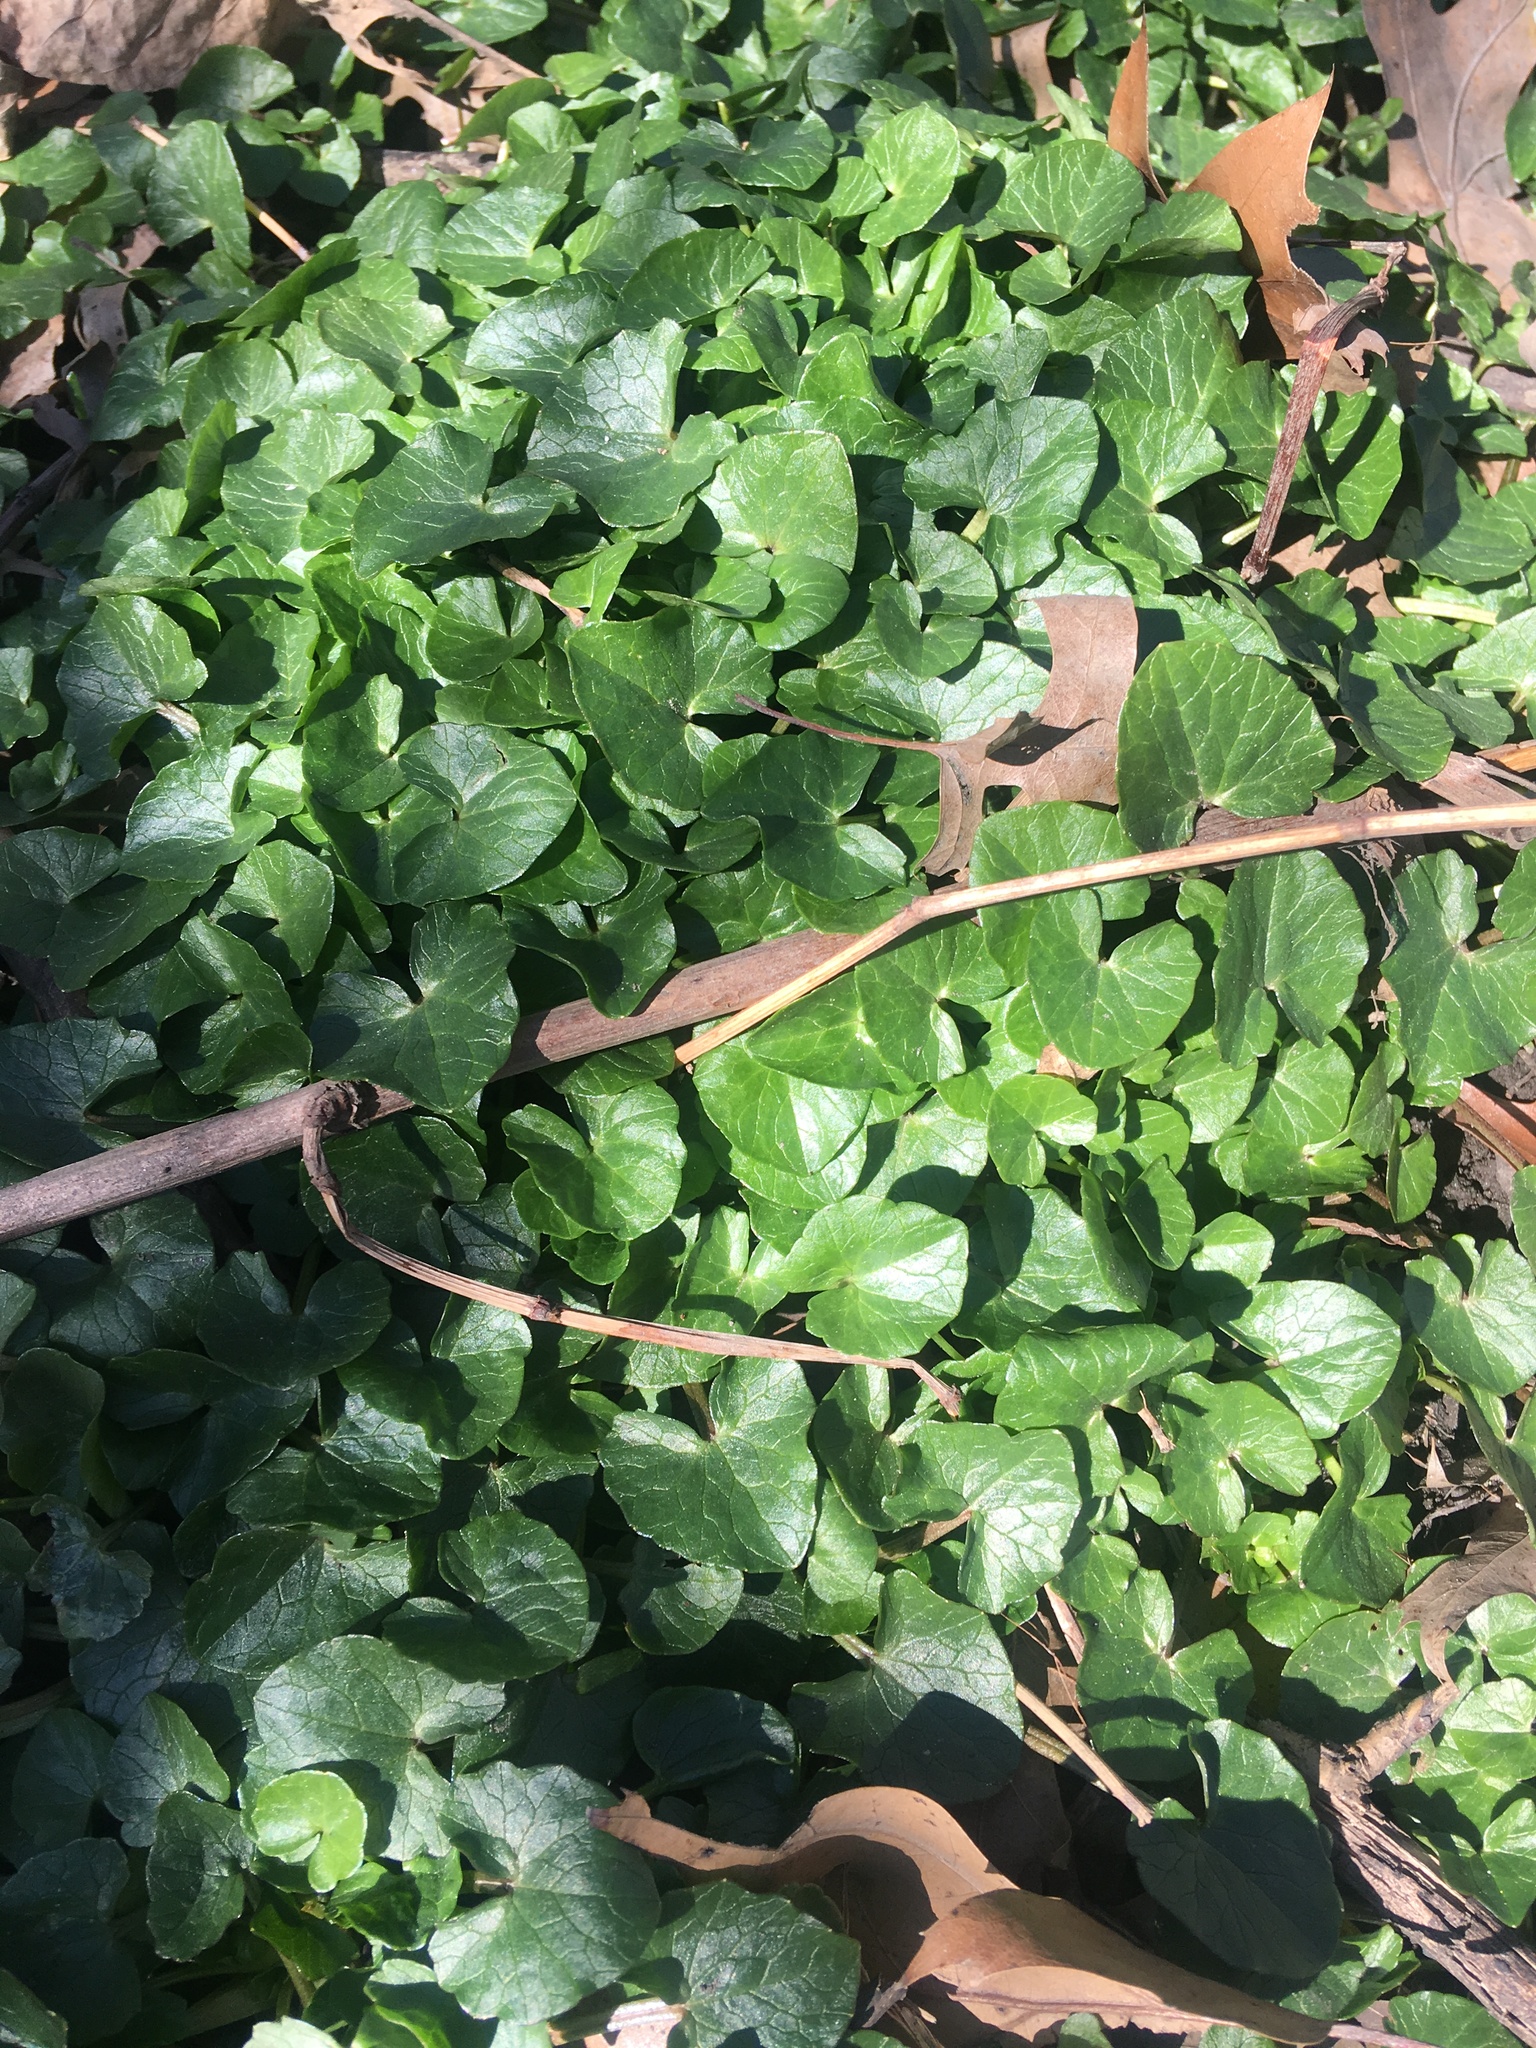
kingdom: Plantae
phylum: Tracheophyta
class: Magnoliopsida
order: Ranunculales
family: Ranunculaceae
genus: Ficaria
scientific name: Ficaria verna
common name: Lesser celandine
